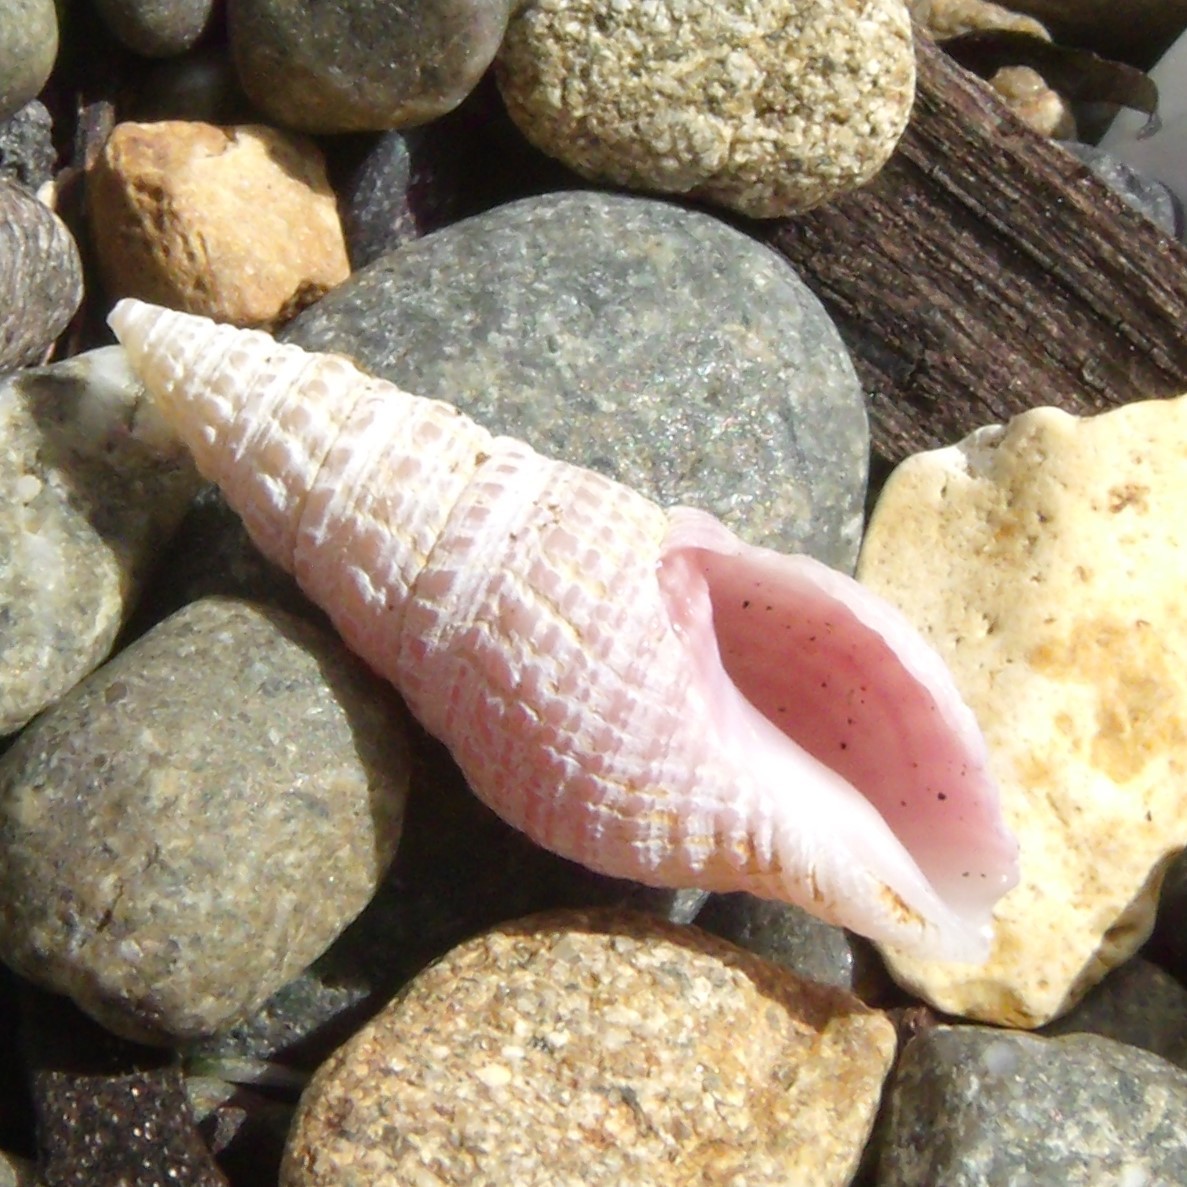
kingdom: Animalia
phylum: Mollusca
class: Gastropoda
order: Neogastropoda
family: Borsoniidae
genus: Phenatoma
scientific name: Phenatoma roseum
